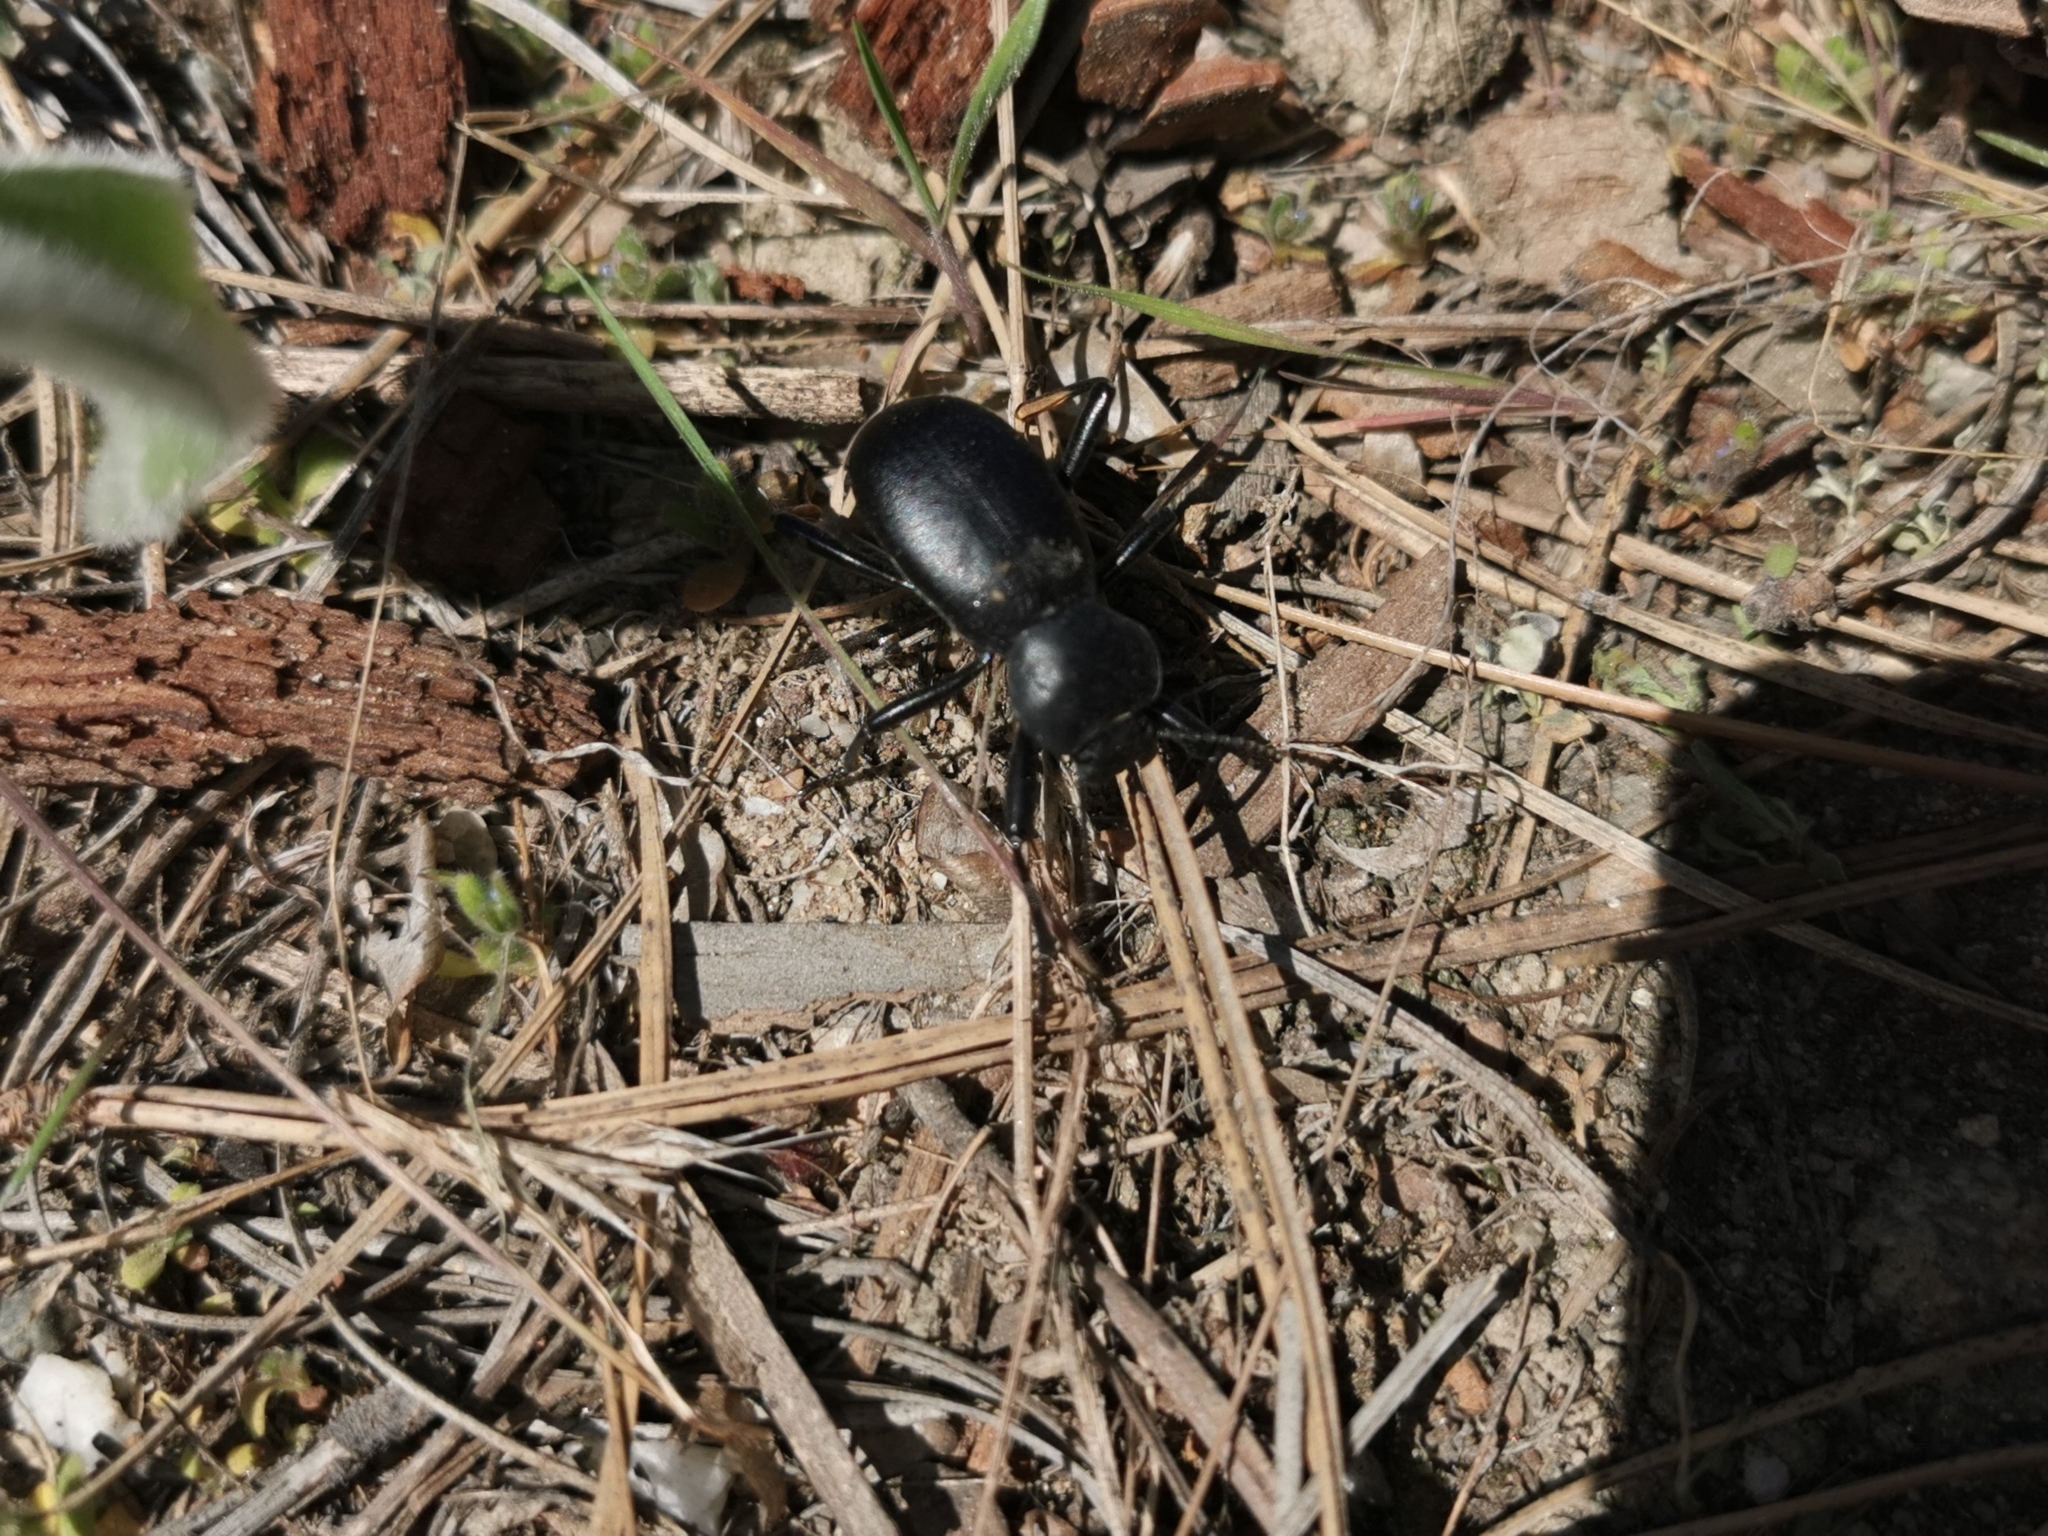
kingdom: Animalia
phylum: Arthropoda
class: Insecta
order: Coleoptera
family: Tenebrionidae
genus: Coelocnemis
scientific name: Coelocnemis dilaticollis
